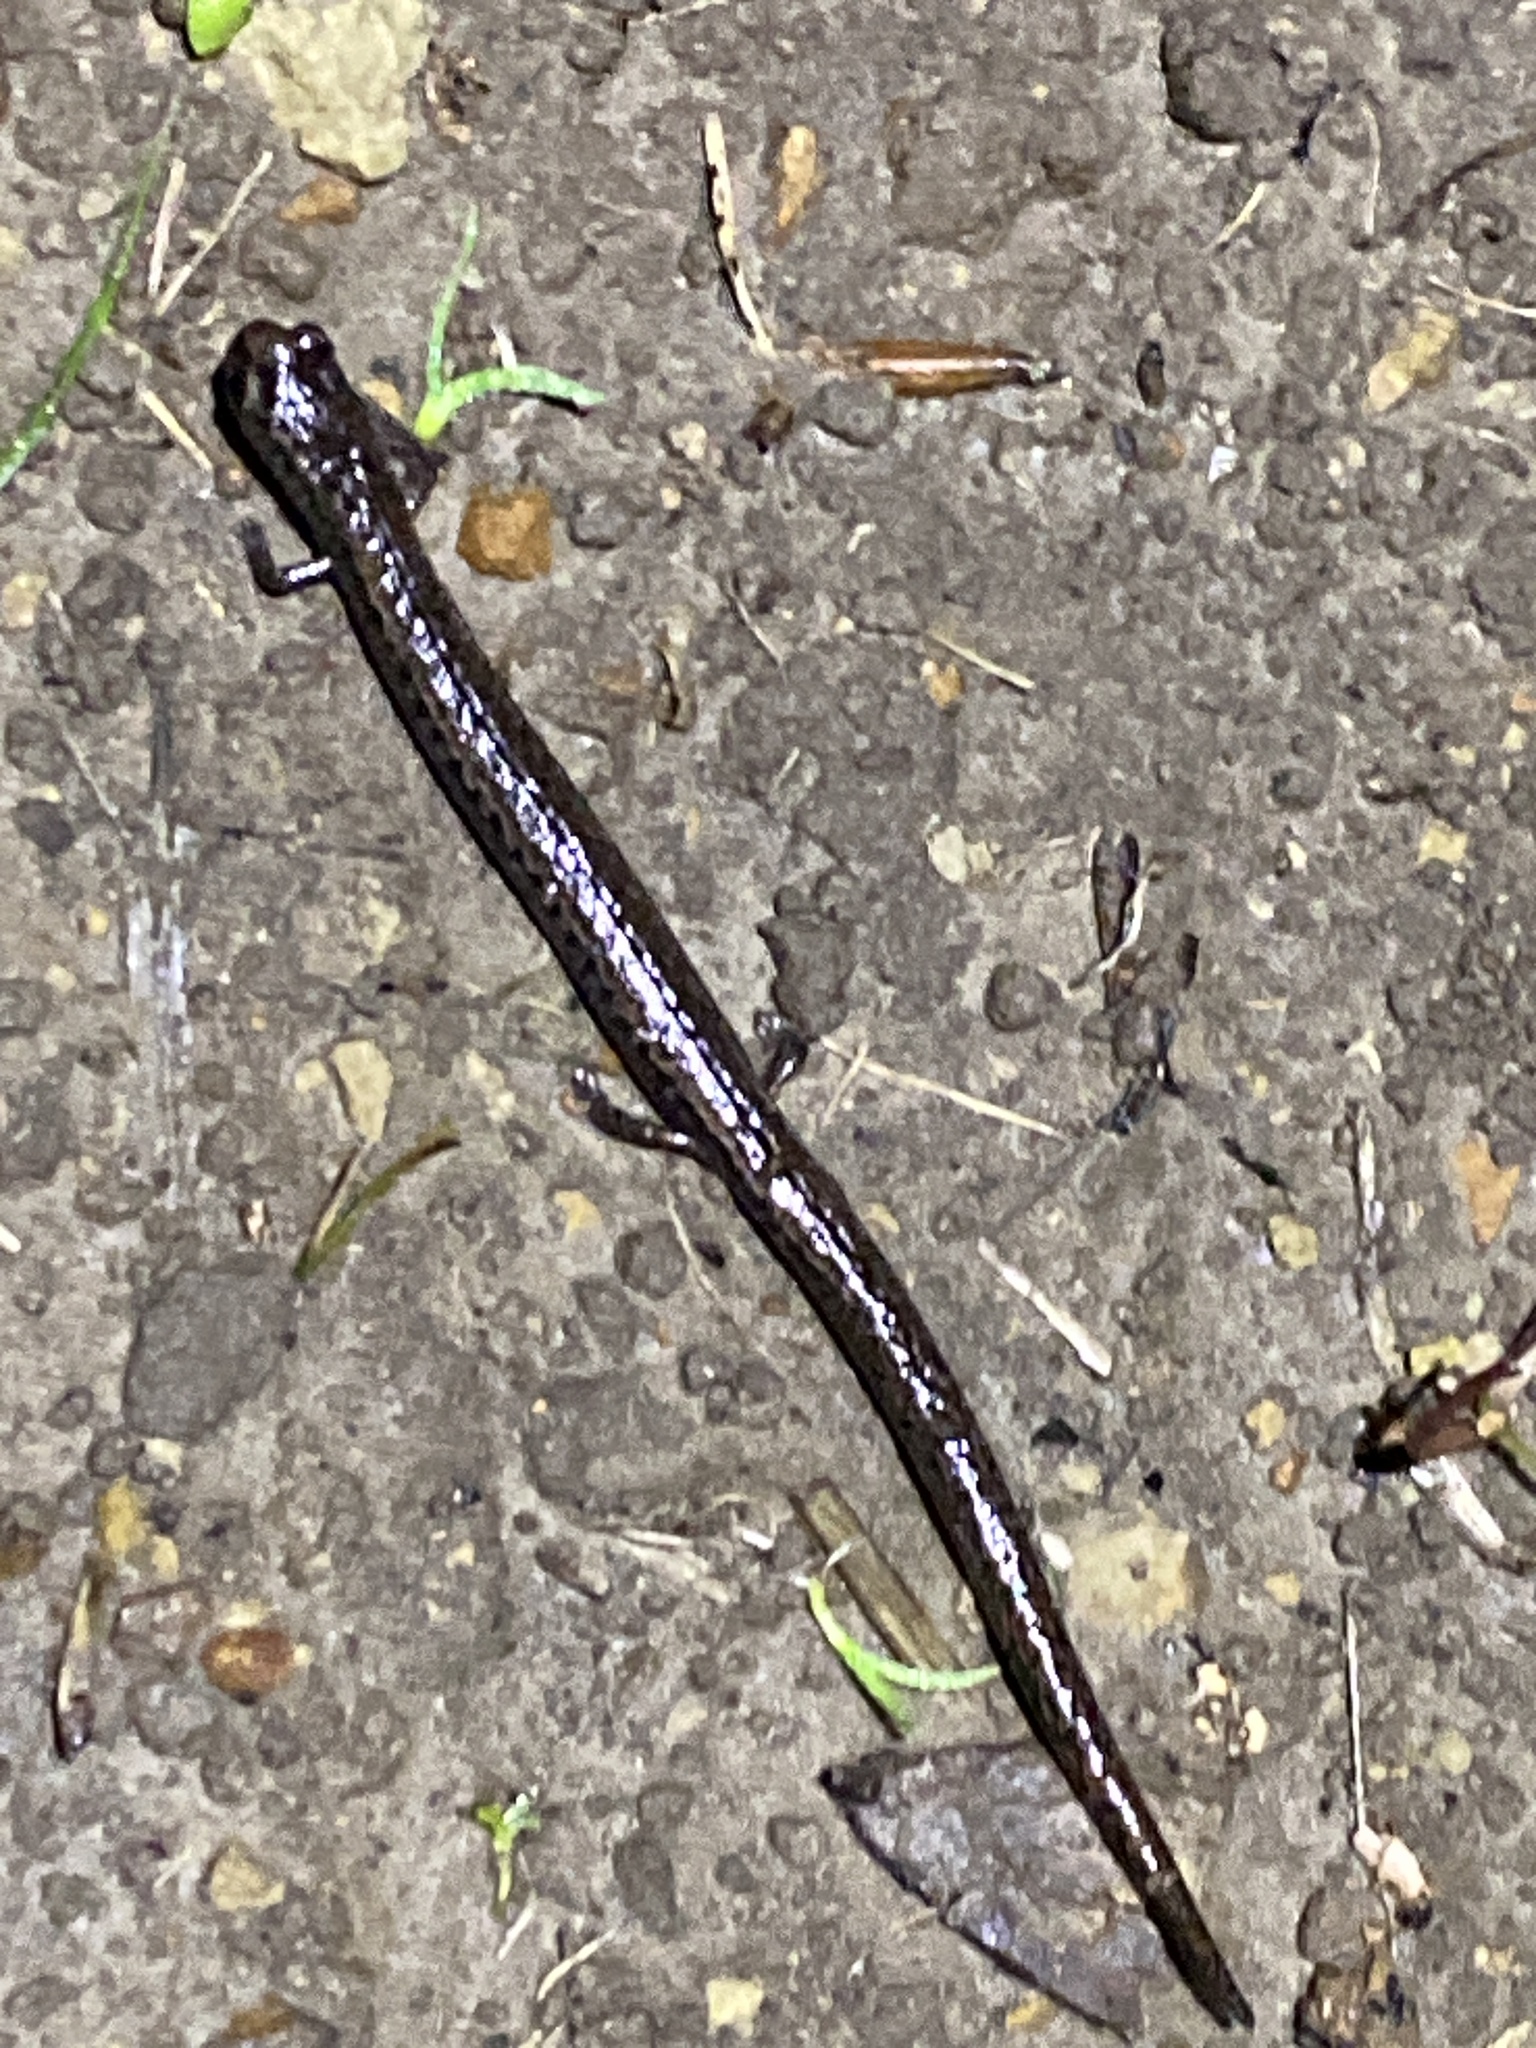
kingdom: Animalia
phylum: Chordata
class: Amphibia
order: Caudata
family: Plethodontidae
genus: Batrachoseps
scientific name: Batrachoseps attenuatus
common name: California slender salamander
